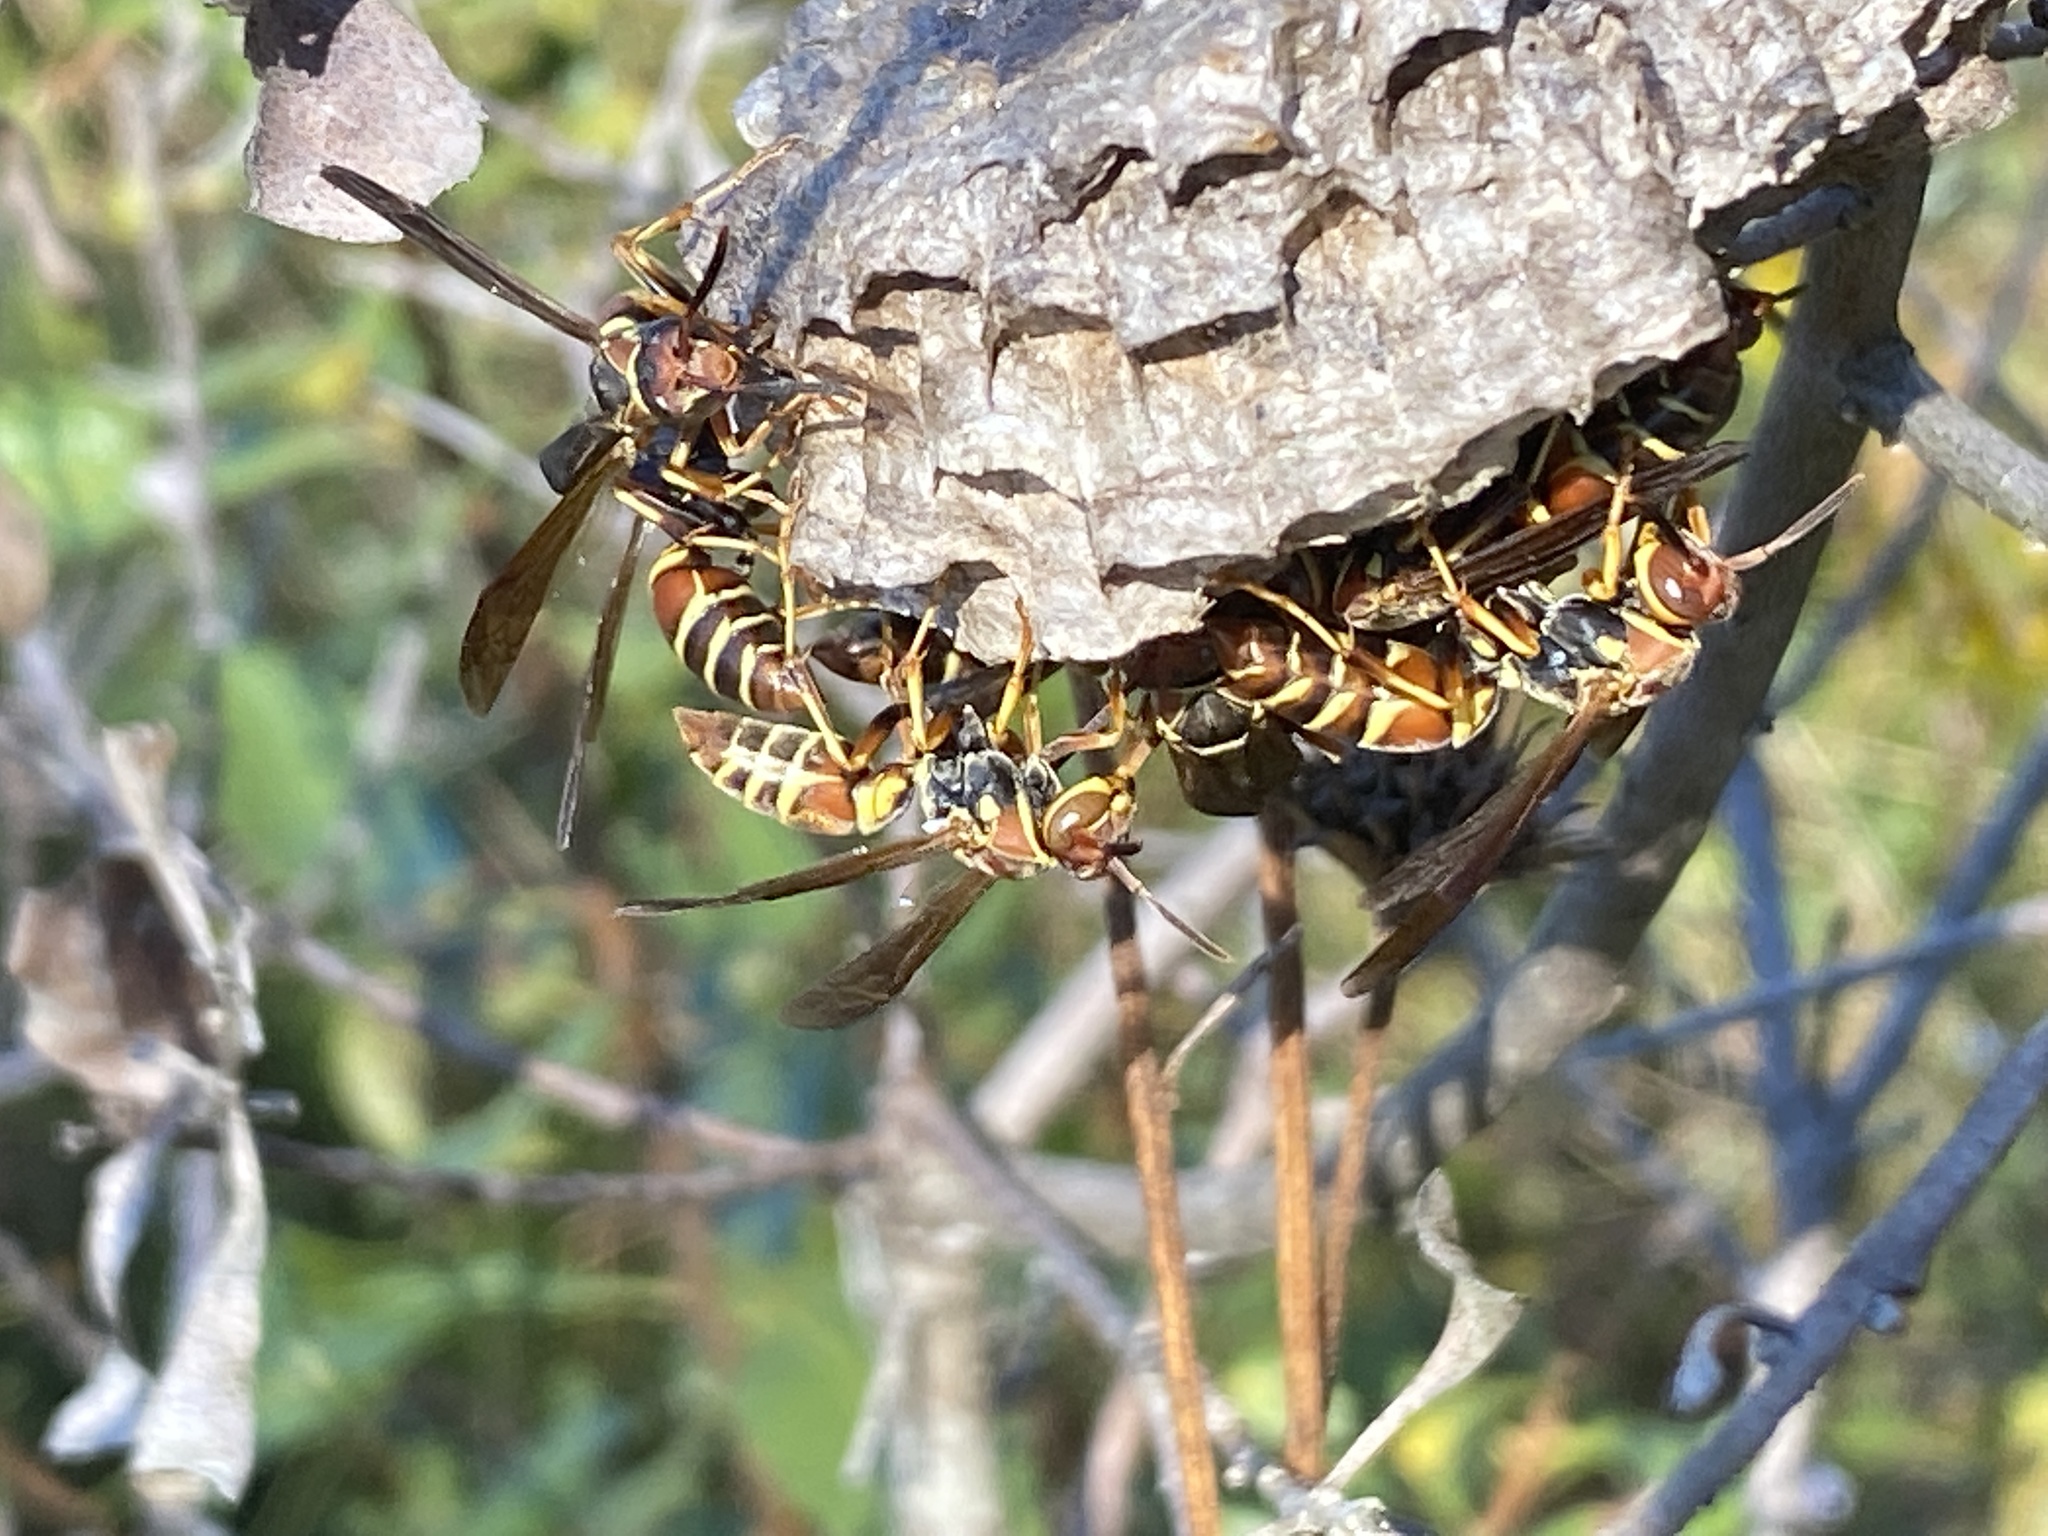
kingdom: Animalia
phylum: Arthropoda
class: Insecta
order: Hymenoptera
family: Eumenidae
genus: Polistes
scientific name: Polistes dorsalis
